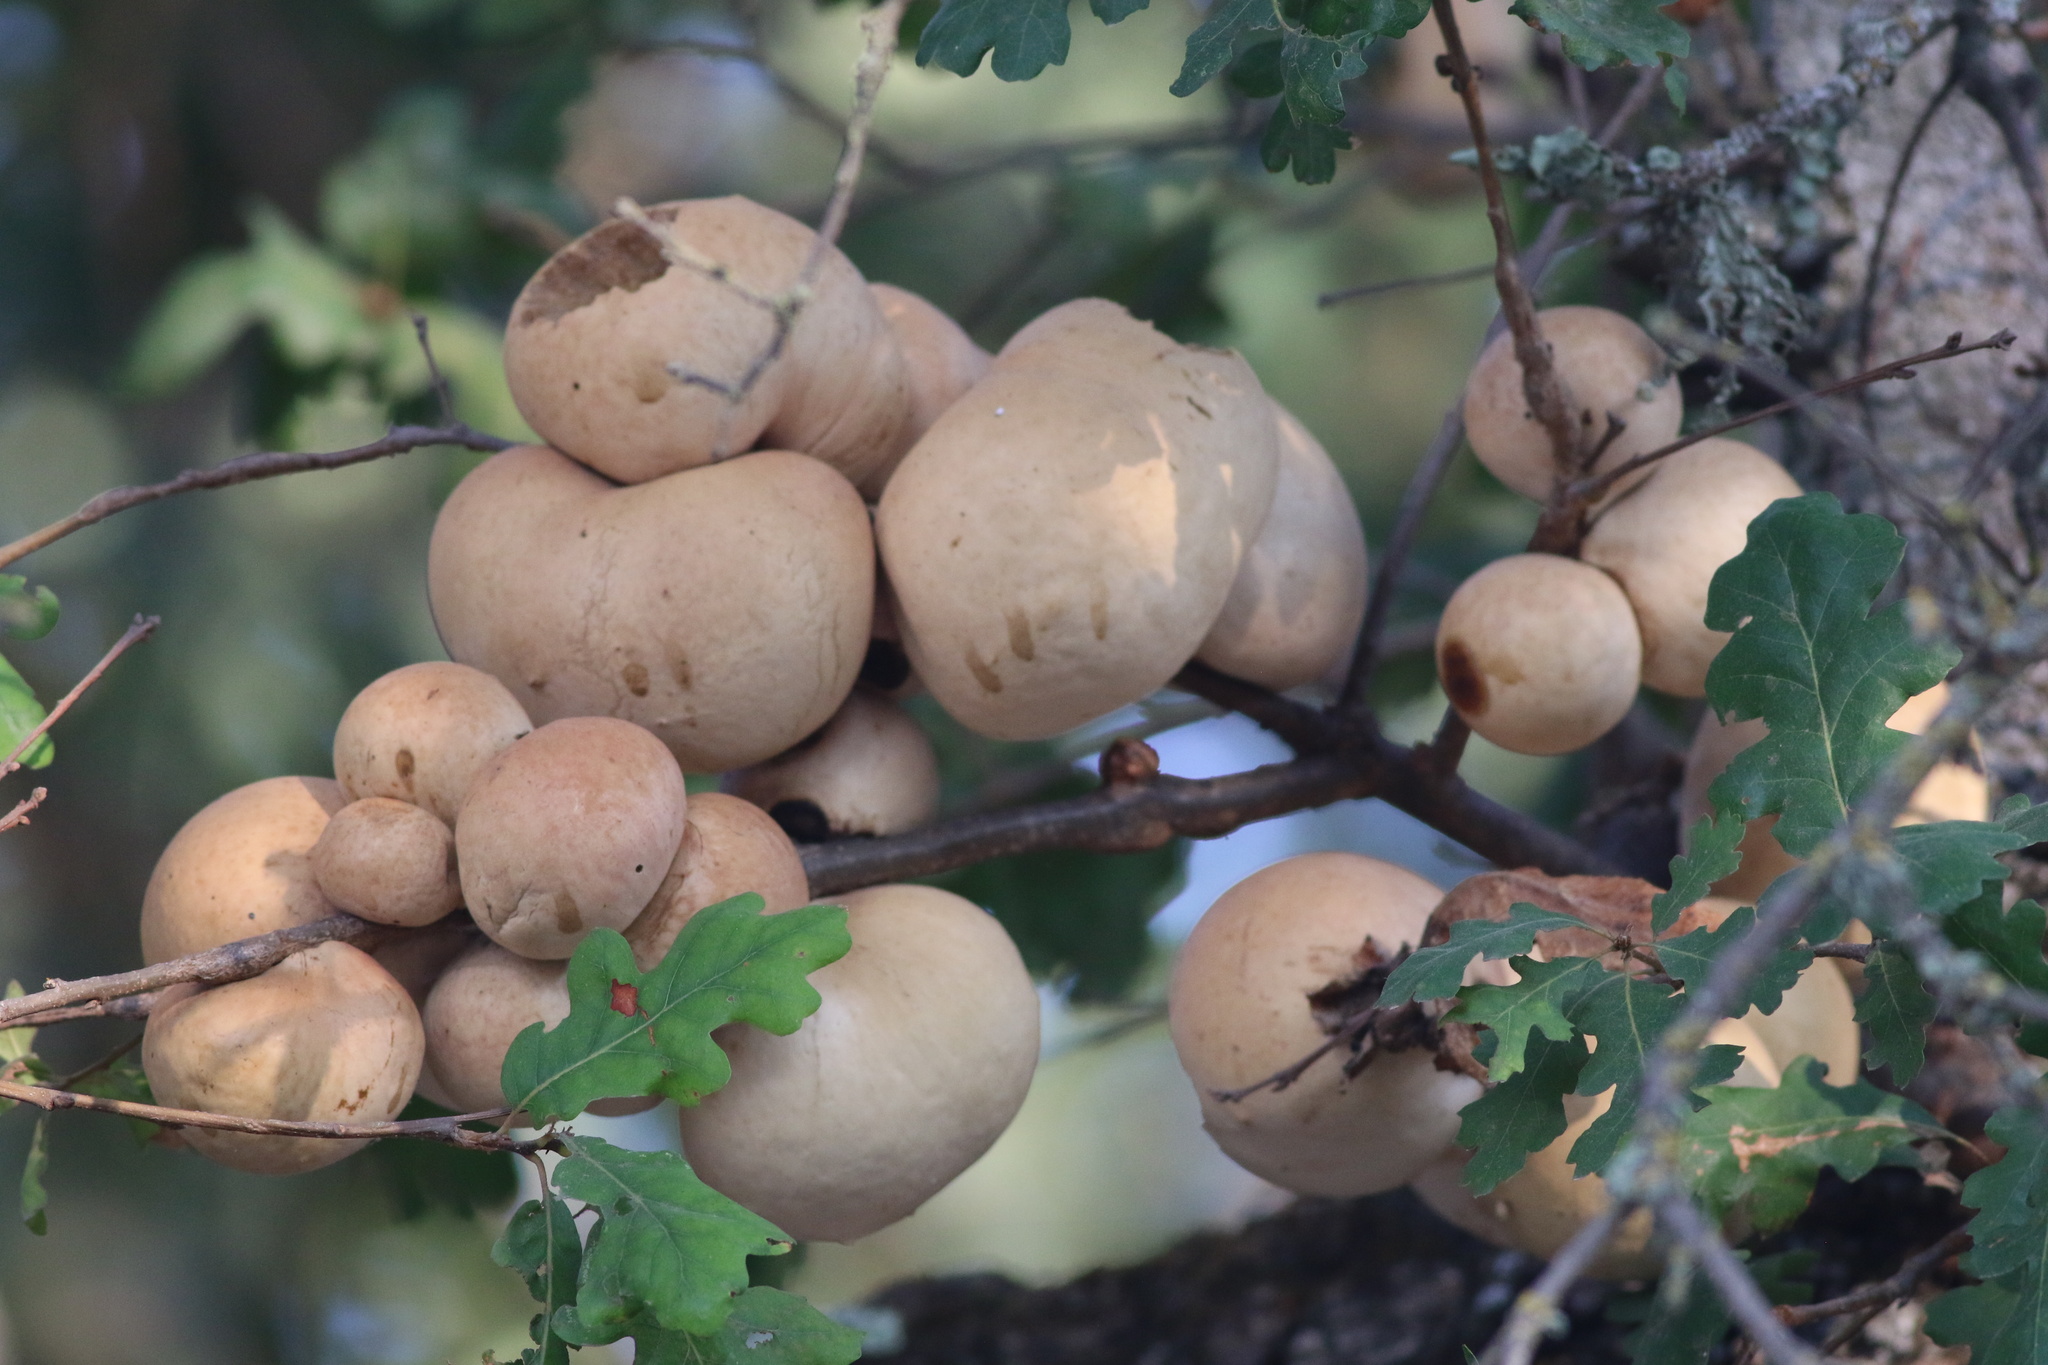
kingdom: Animalia
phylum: Arthropoda
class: Insecta
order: Hymenoptera
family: Cynipidae
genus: Andricus
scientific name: Andricus quercuscalifornicus
